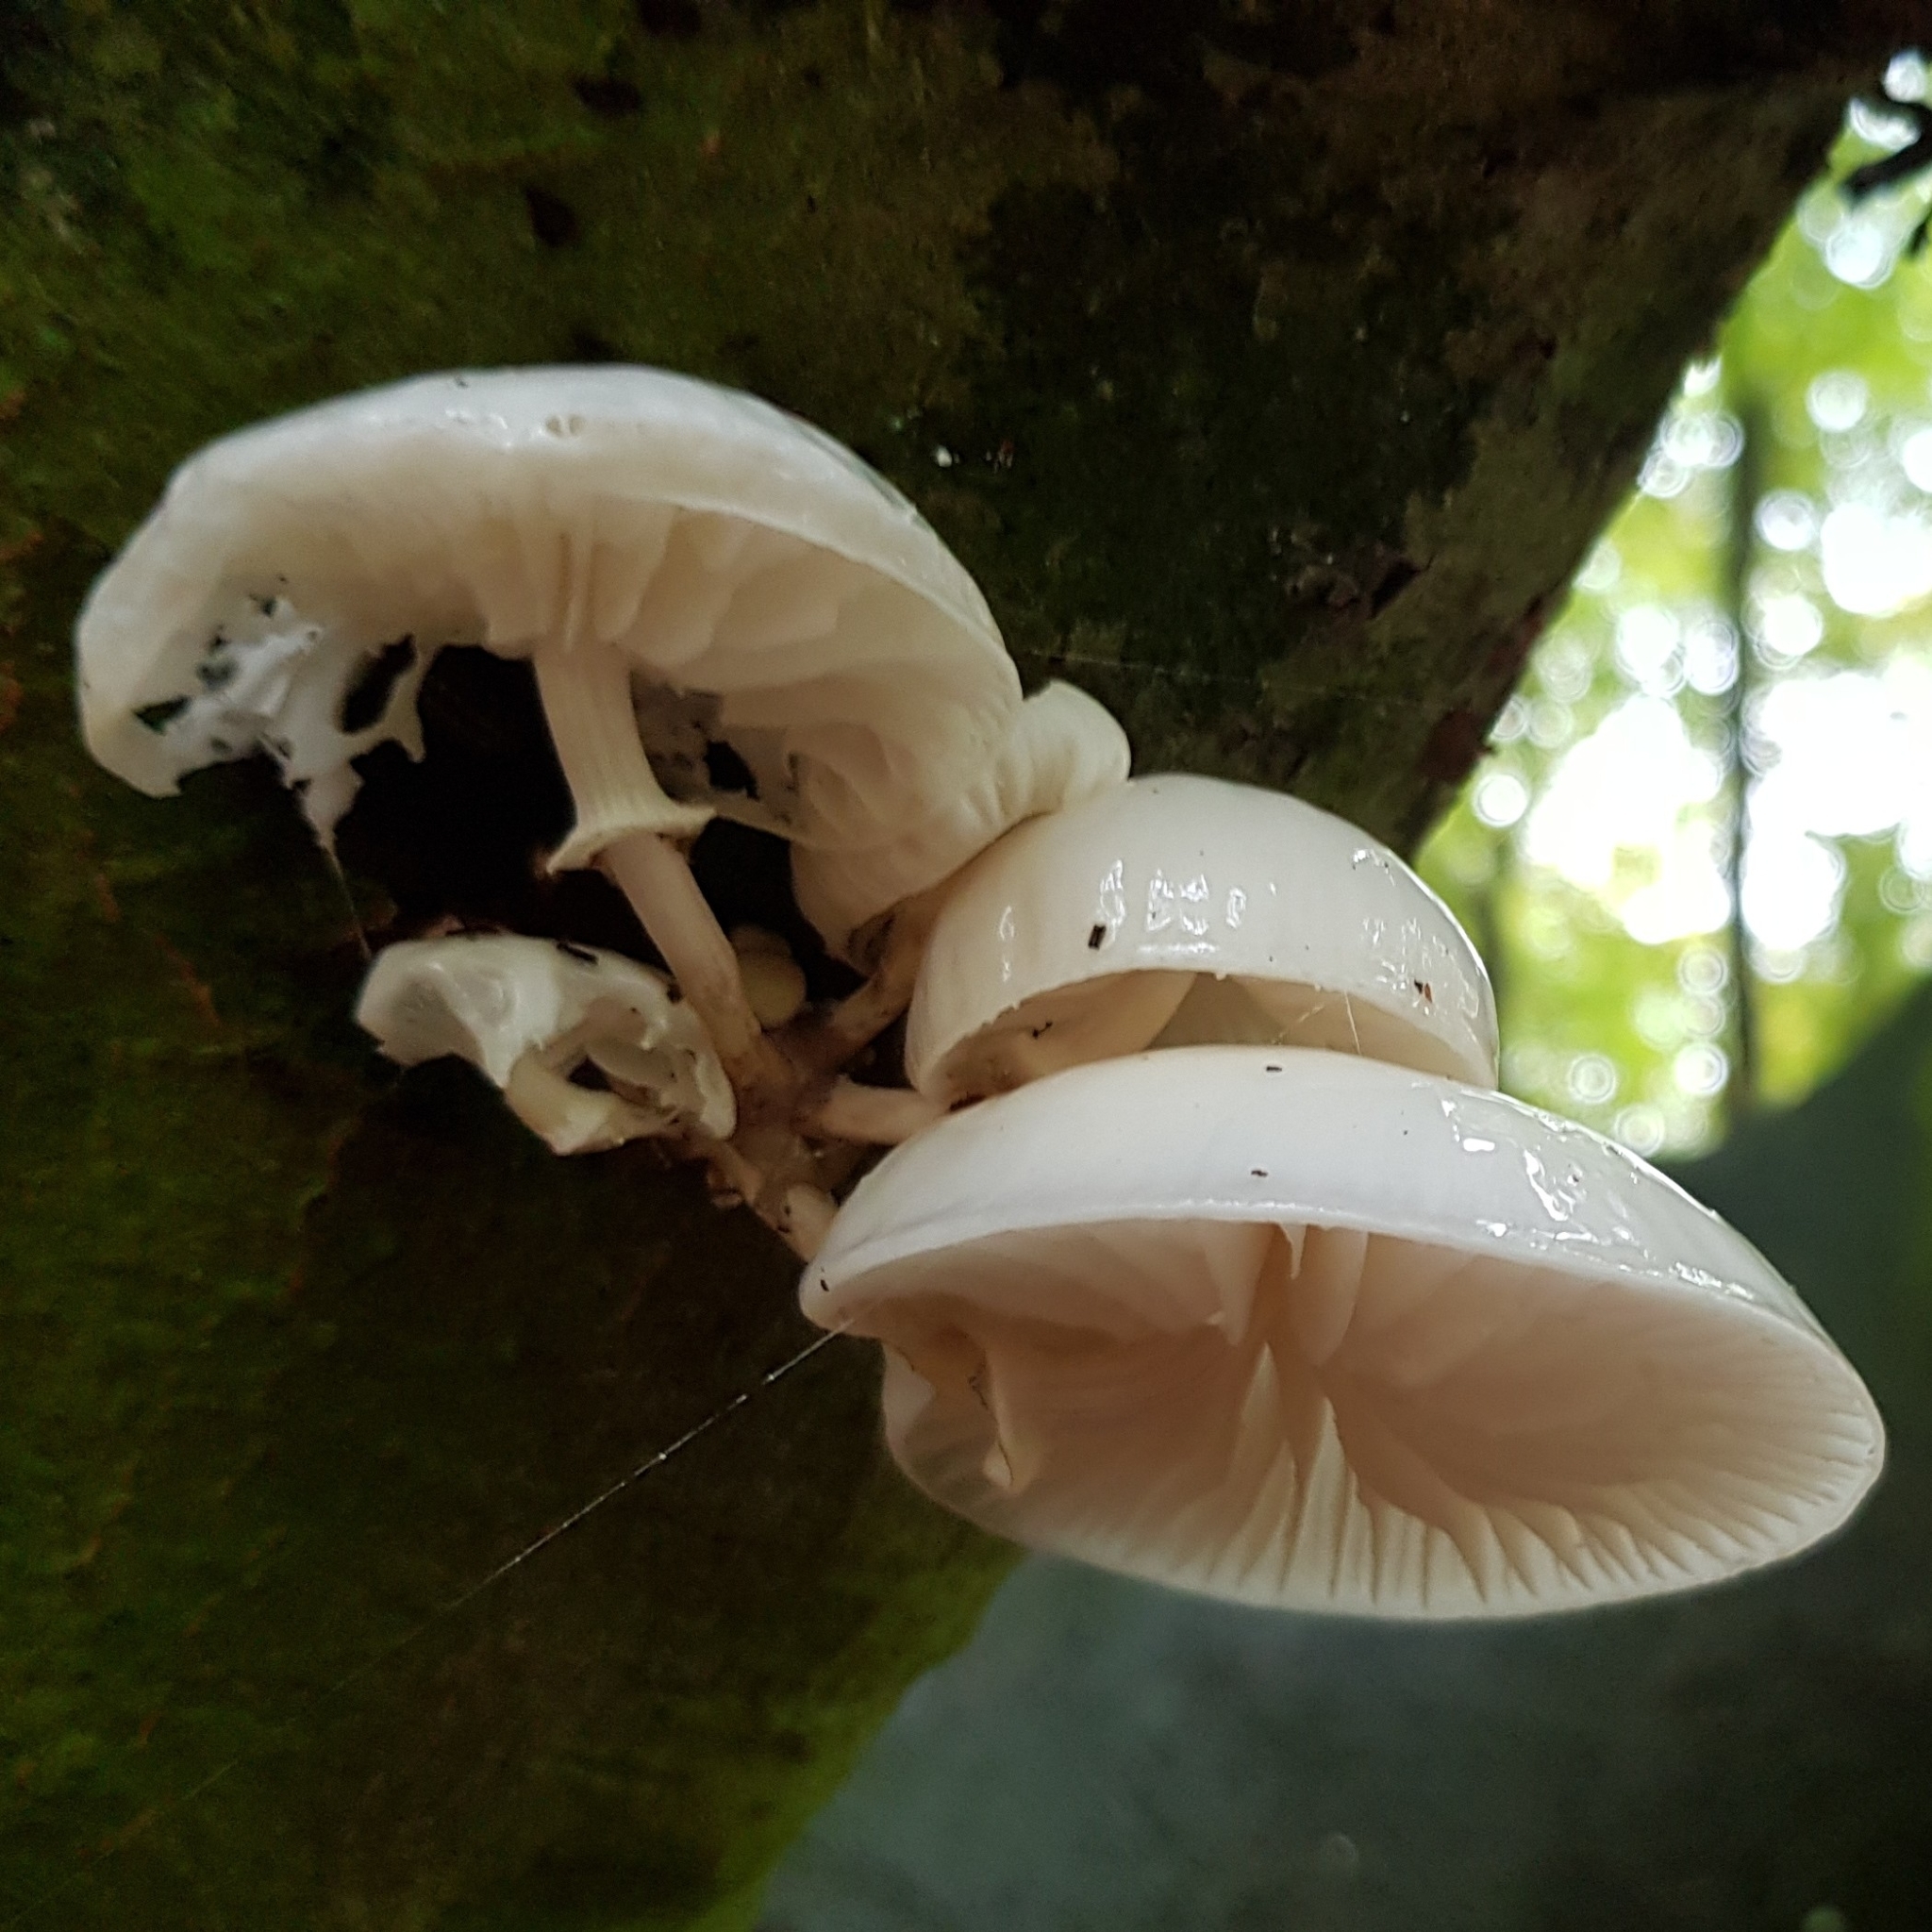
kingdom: Fungi
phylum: Basidiomycota
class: Agaricomycetes
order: Agaricales
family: Physalacriaceae
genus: Mucidula
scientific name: Mucidula mucida
